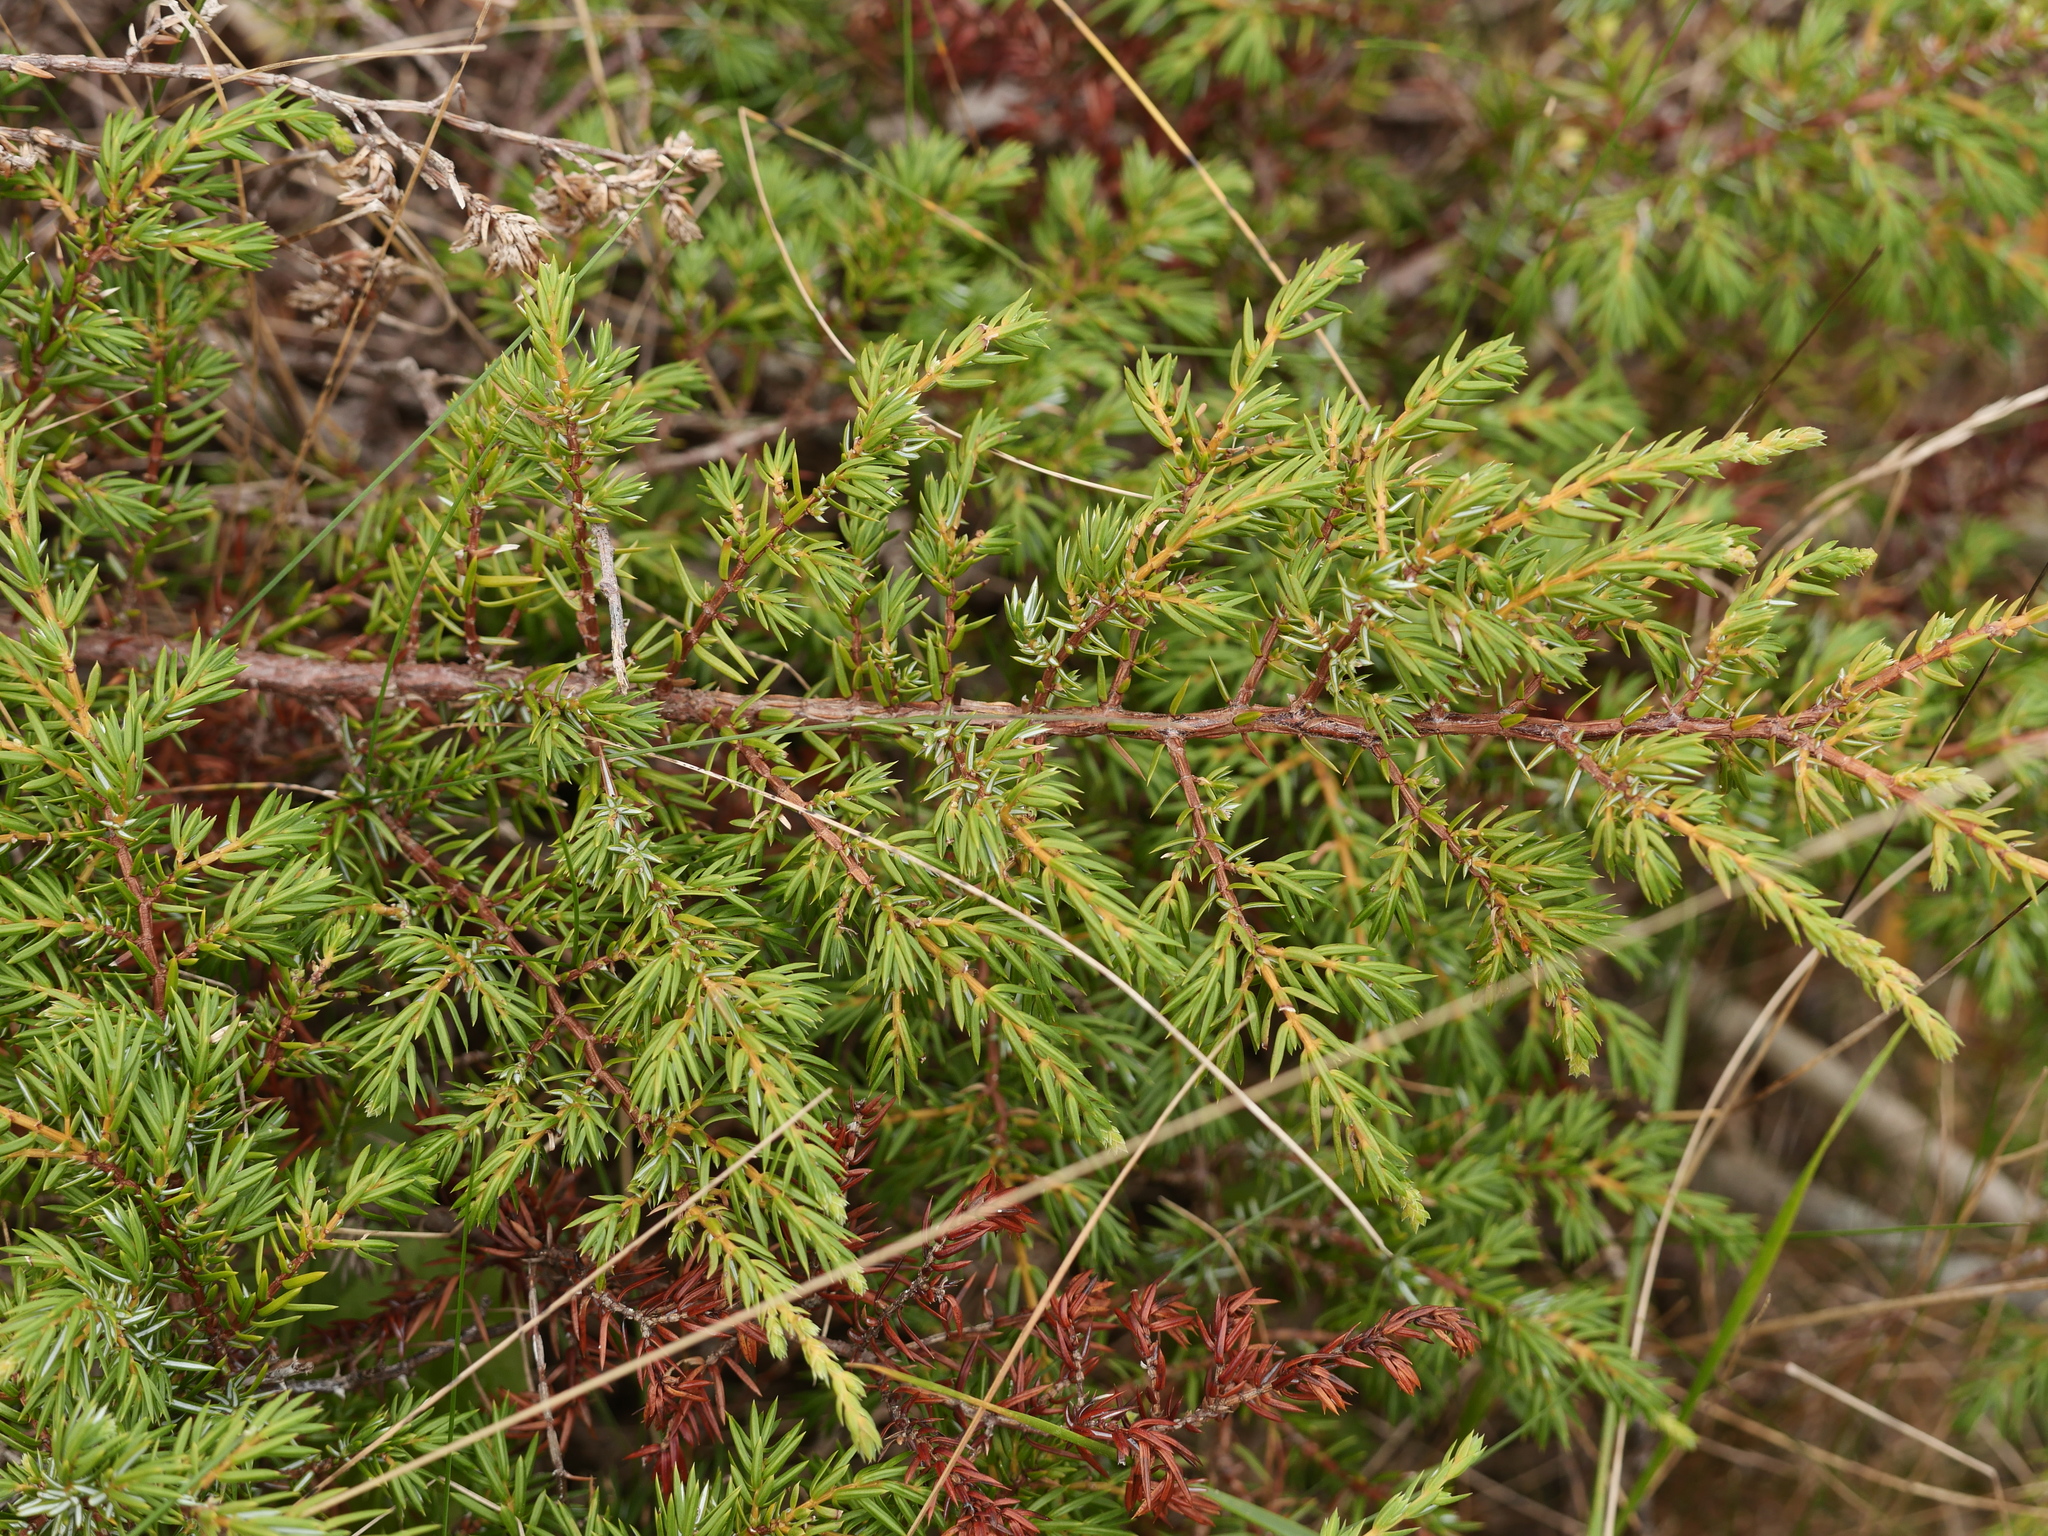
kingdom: Plantae
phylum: Tracheophyta
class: Pinopsida
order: Pinales
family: Cupressaceae
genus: Juniperus
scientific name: Juniperus communis
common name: Common juniper
